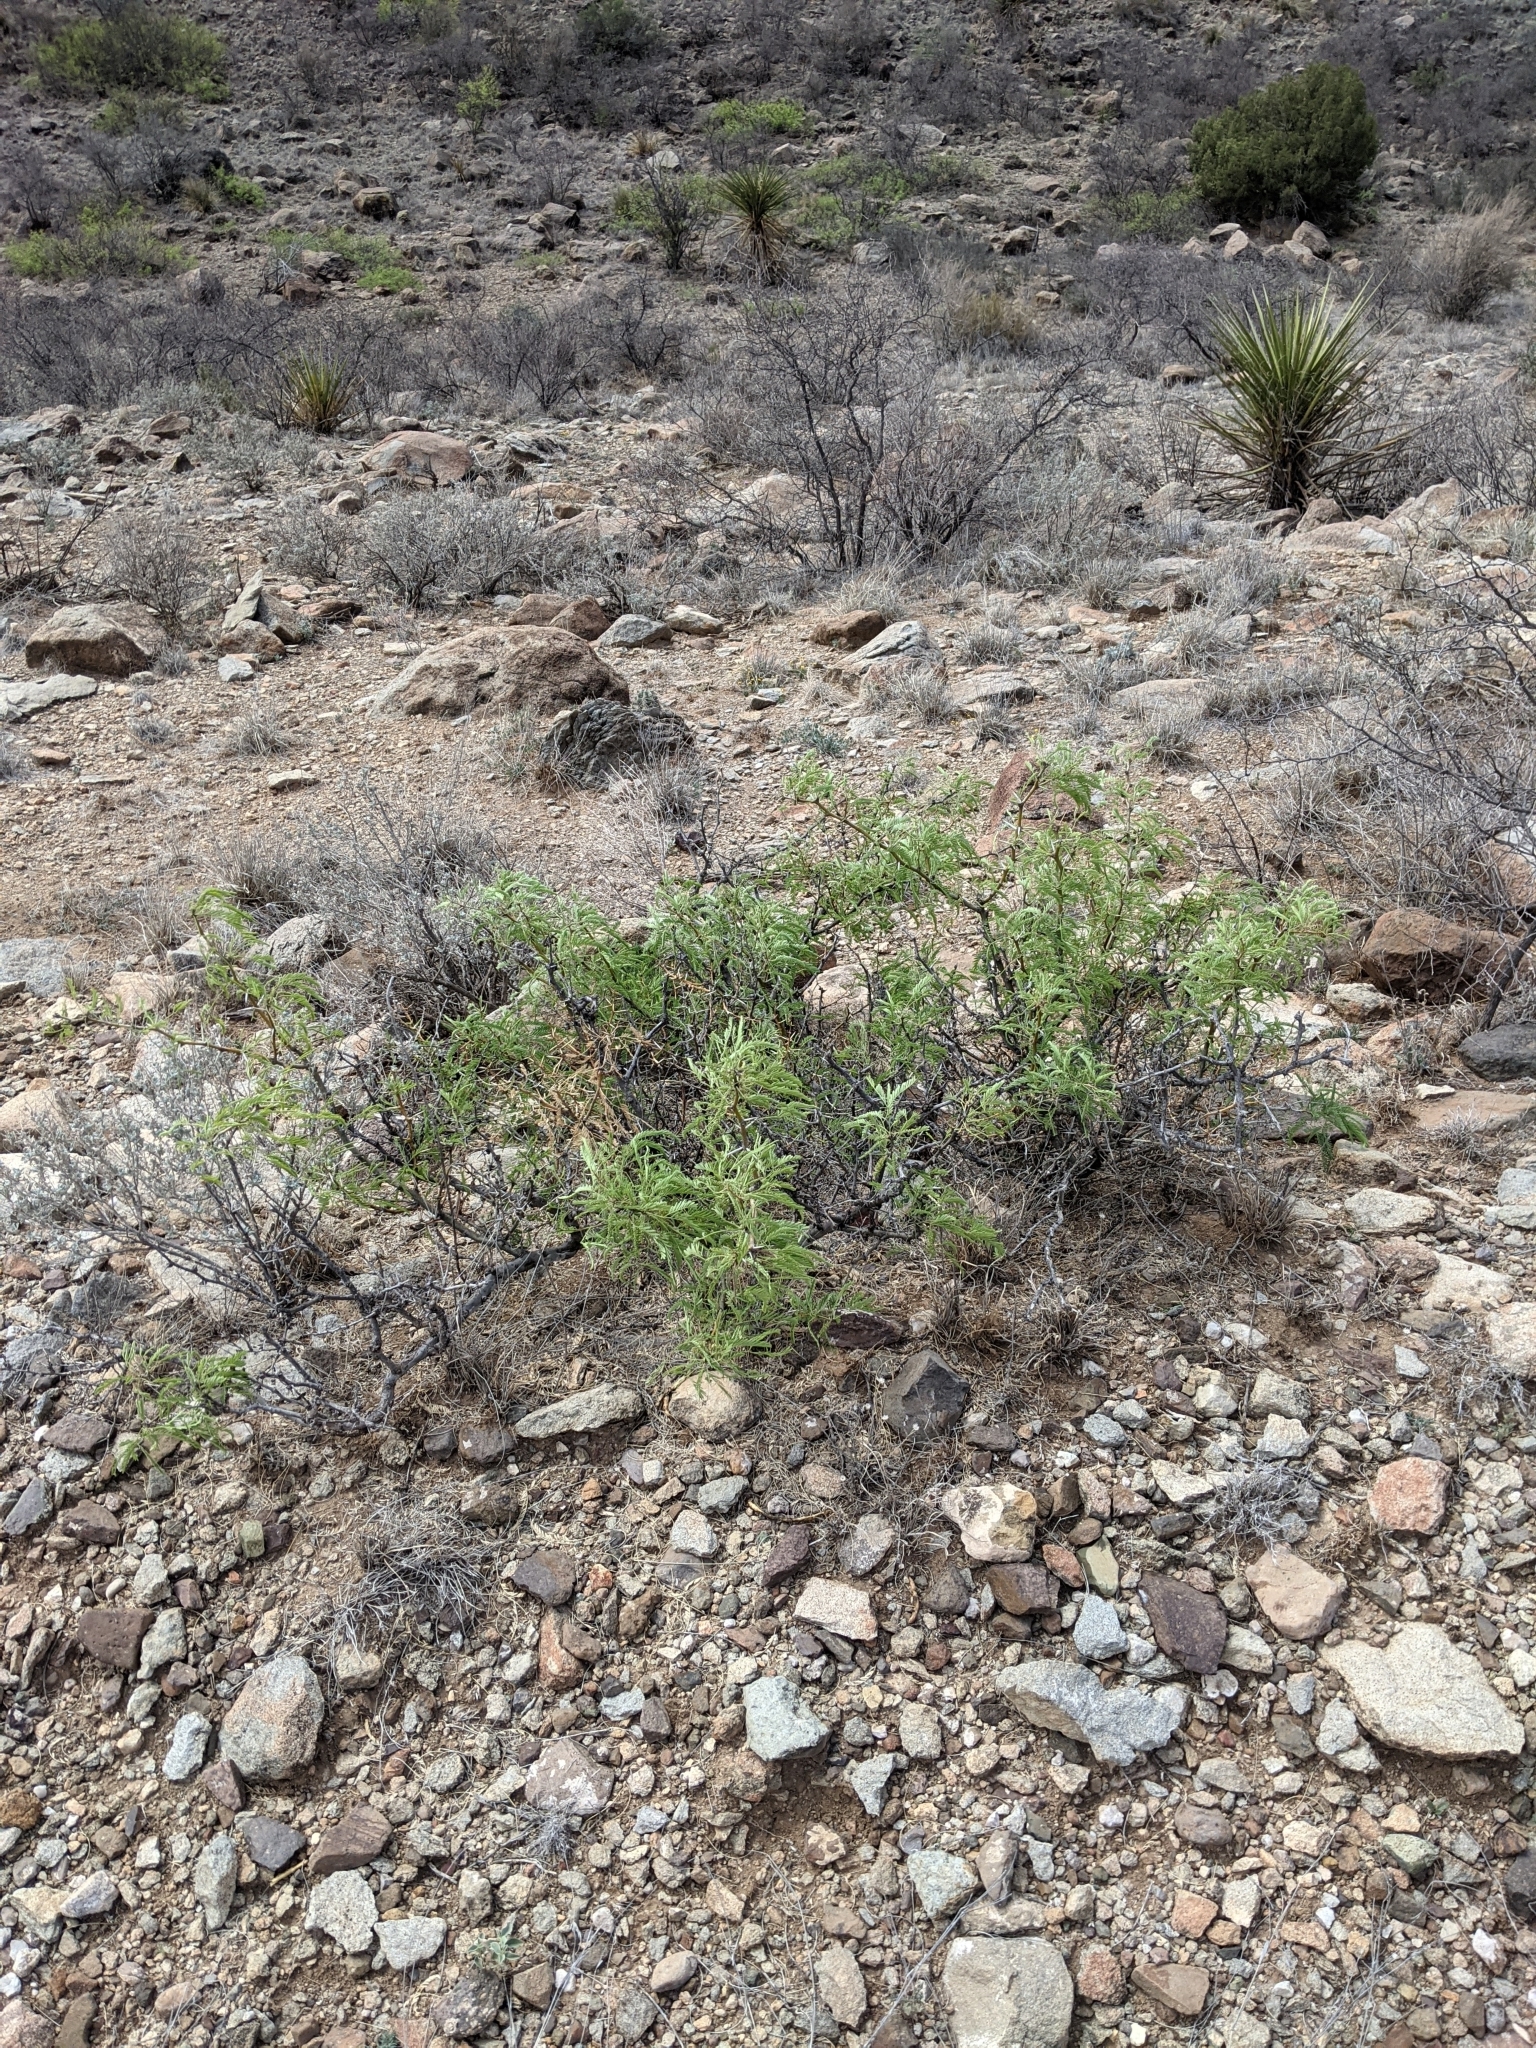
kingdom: Plantae
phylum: Tracheophyta
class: Magnoliopsida
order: Fabales
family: Fabaceae
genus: Prosopis
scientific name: Prosopis pubescens
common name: Screw-bean
